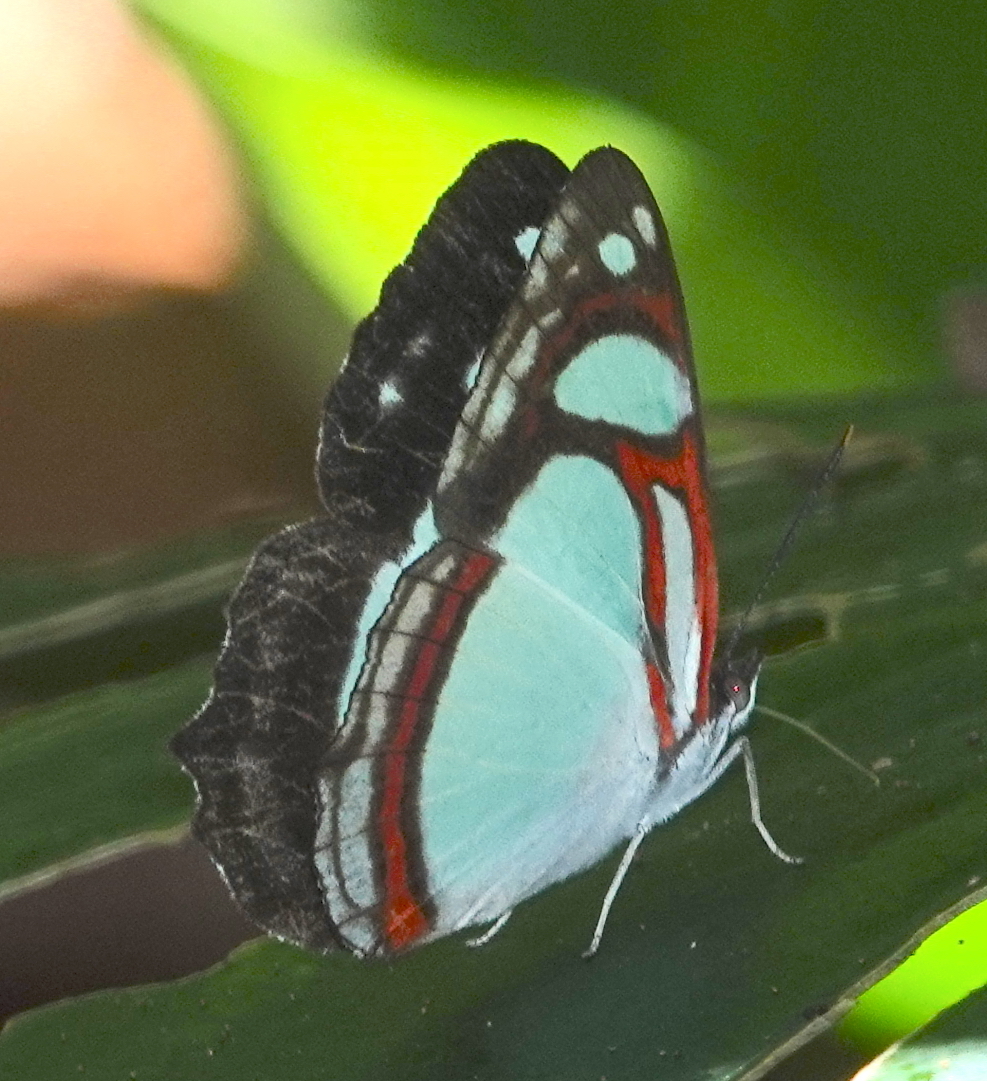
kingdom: Animalia
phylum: Arthropoda
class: Insecta
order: Lepidoptera
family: Nymphalidae
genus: Pyrrhogyra
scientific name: Pyrrhogyra crameri
